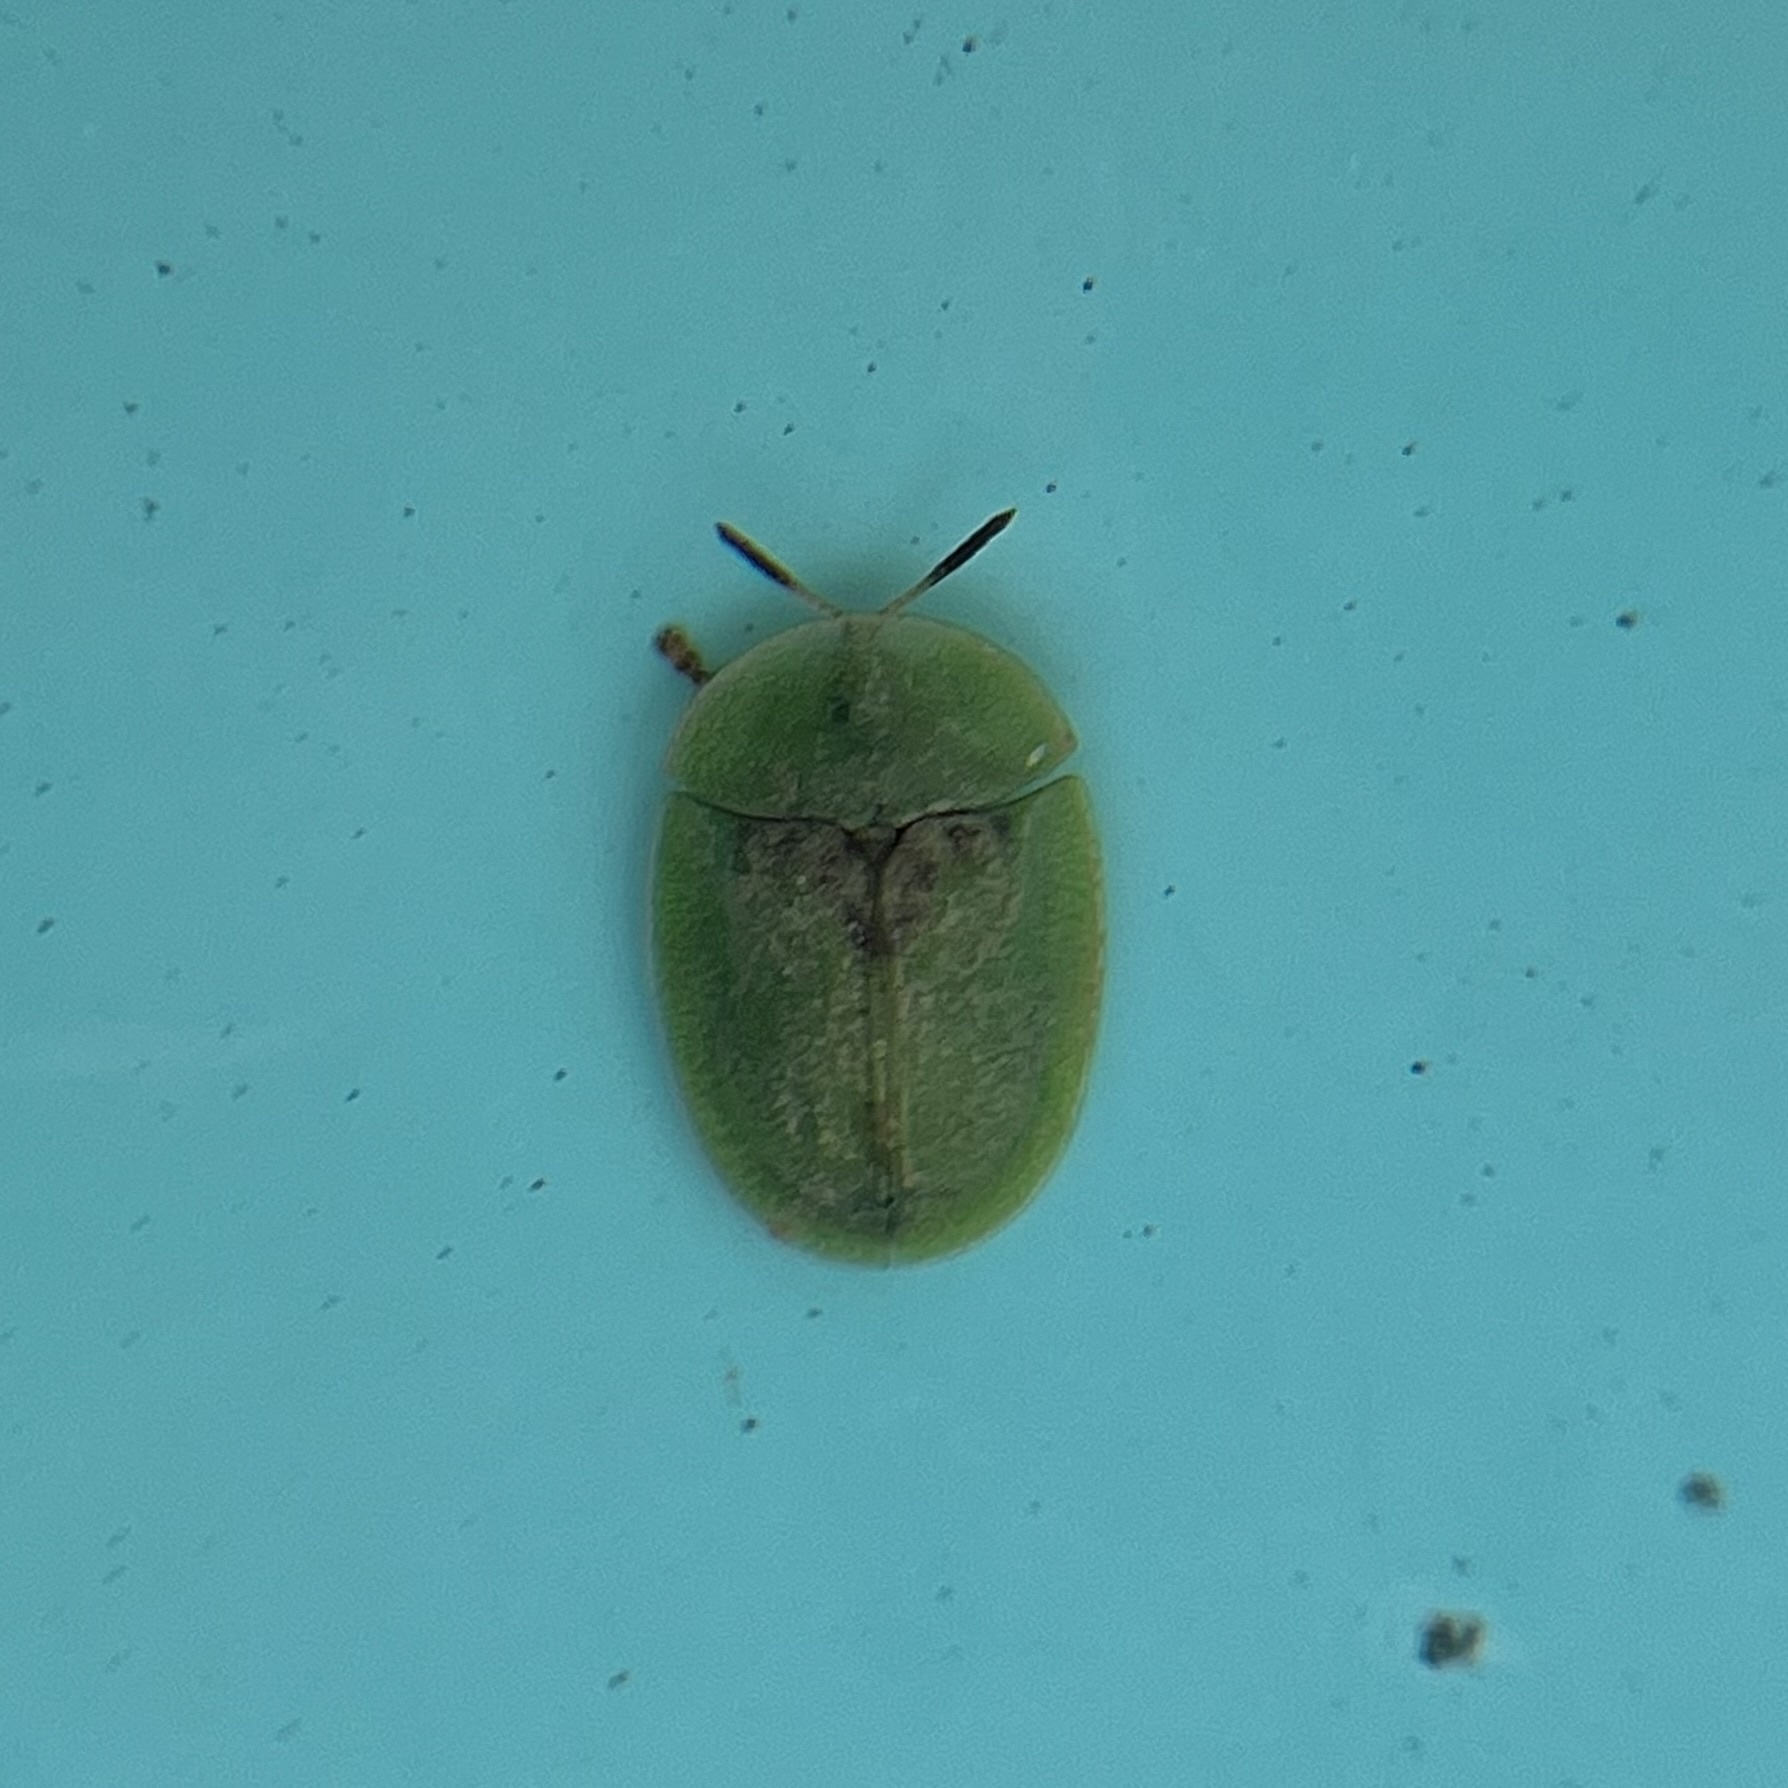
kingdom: Animalia
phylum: Arthropoda
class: Insecta
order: Coleoptera
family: Chrysomelidae
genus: Cassida
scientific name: Cassida rubiginosa
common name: Thistle tortoise beetle
